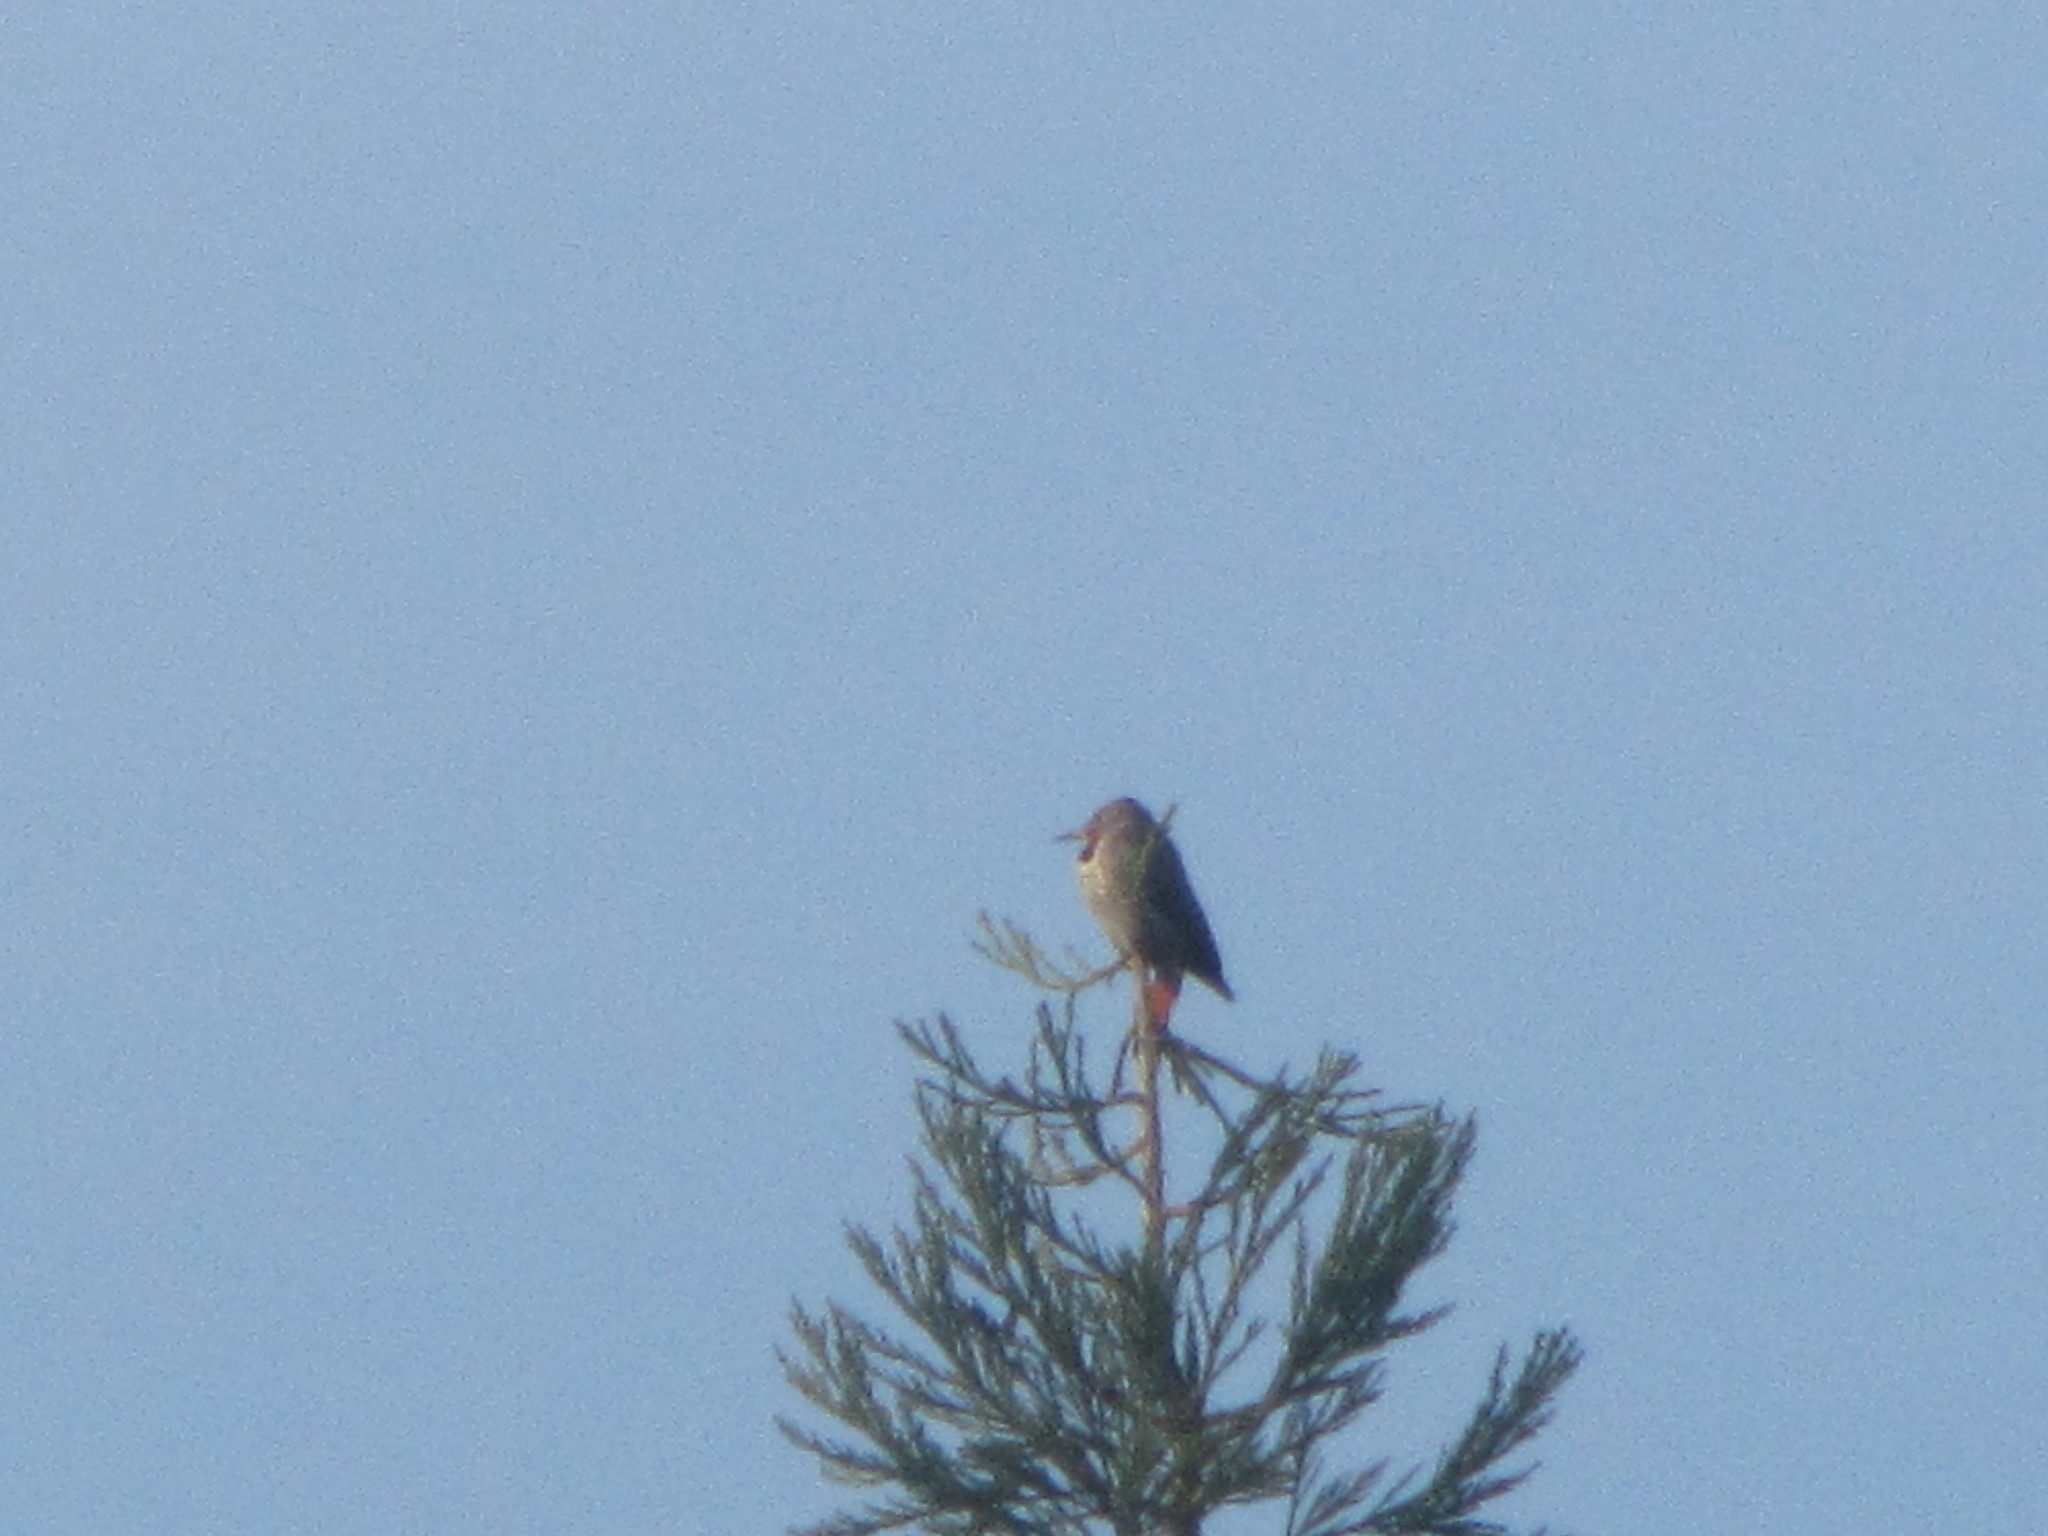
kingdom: Animalia
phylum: Chordata
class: Aves
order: Piciformes
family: Picidae
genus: Colaptes
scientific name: Colaptes auratus
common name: Northern flicker
